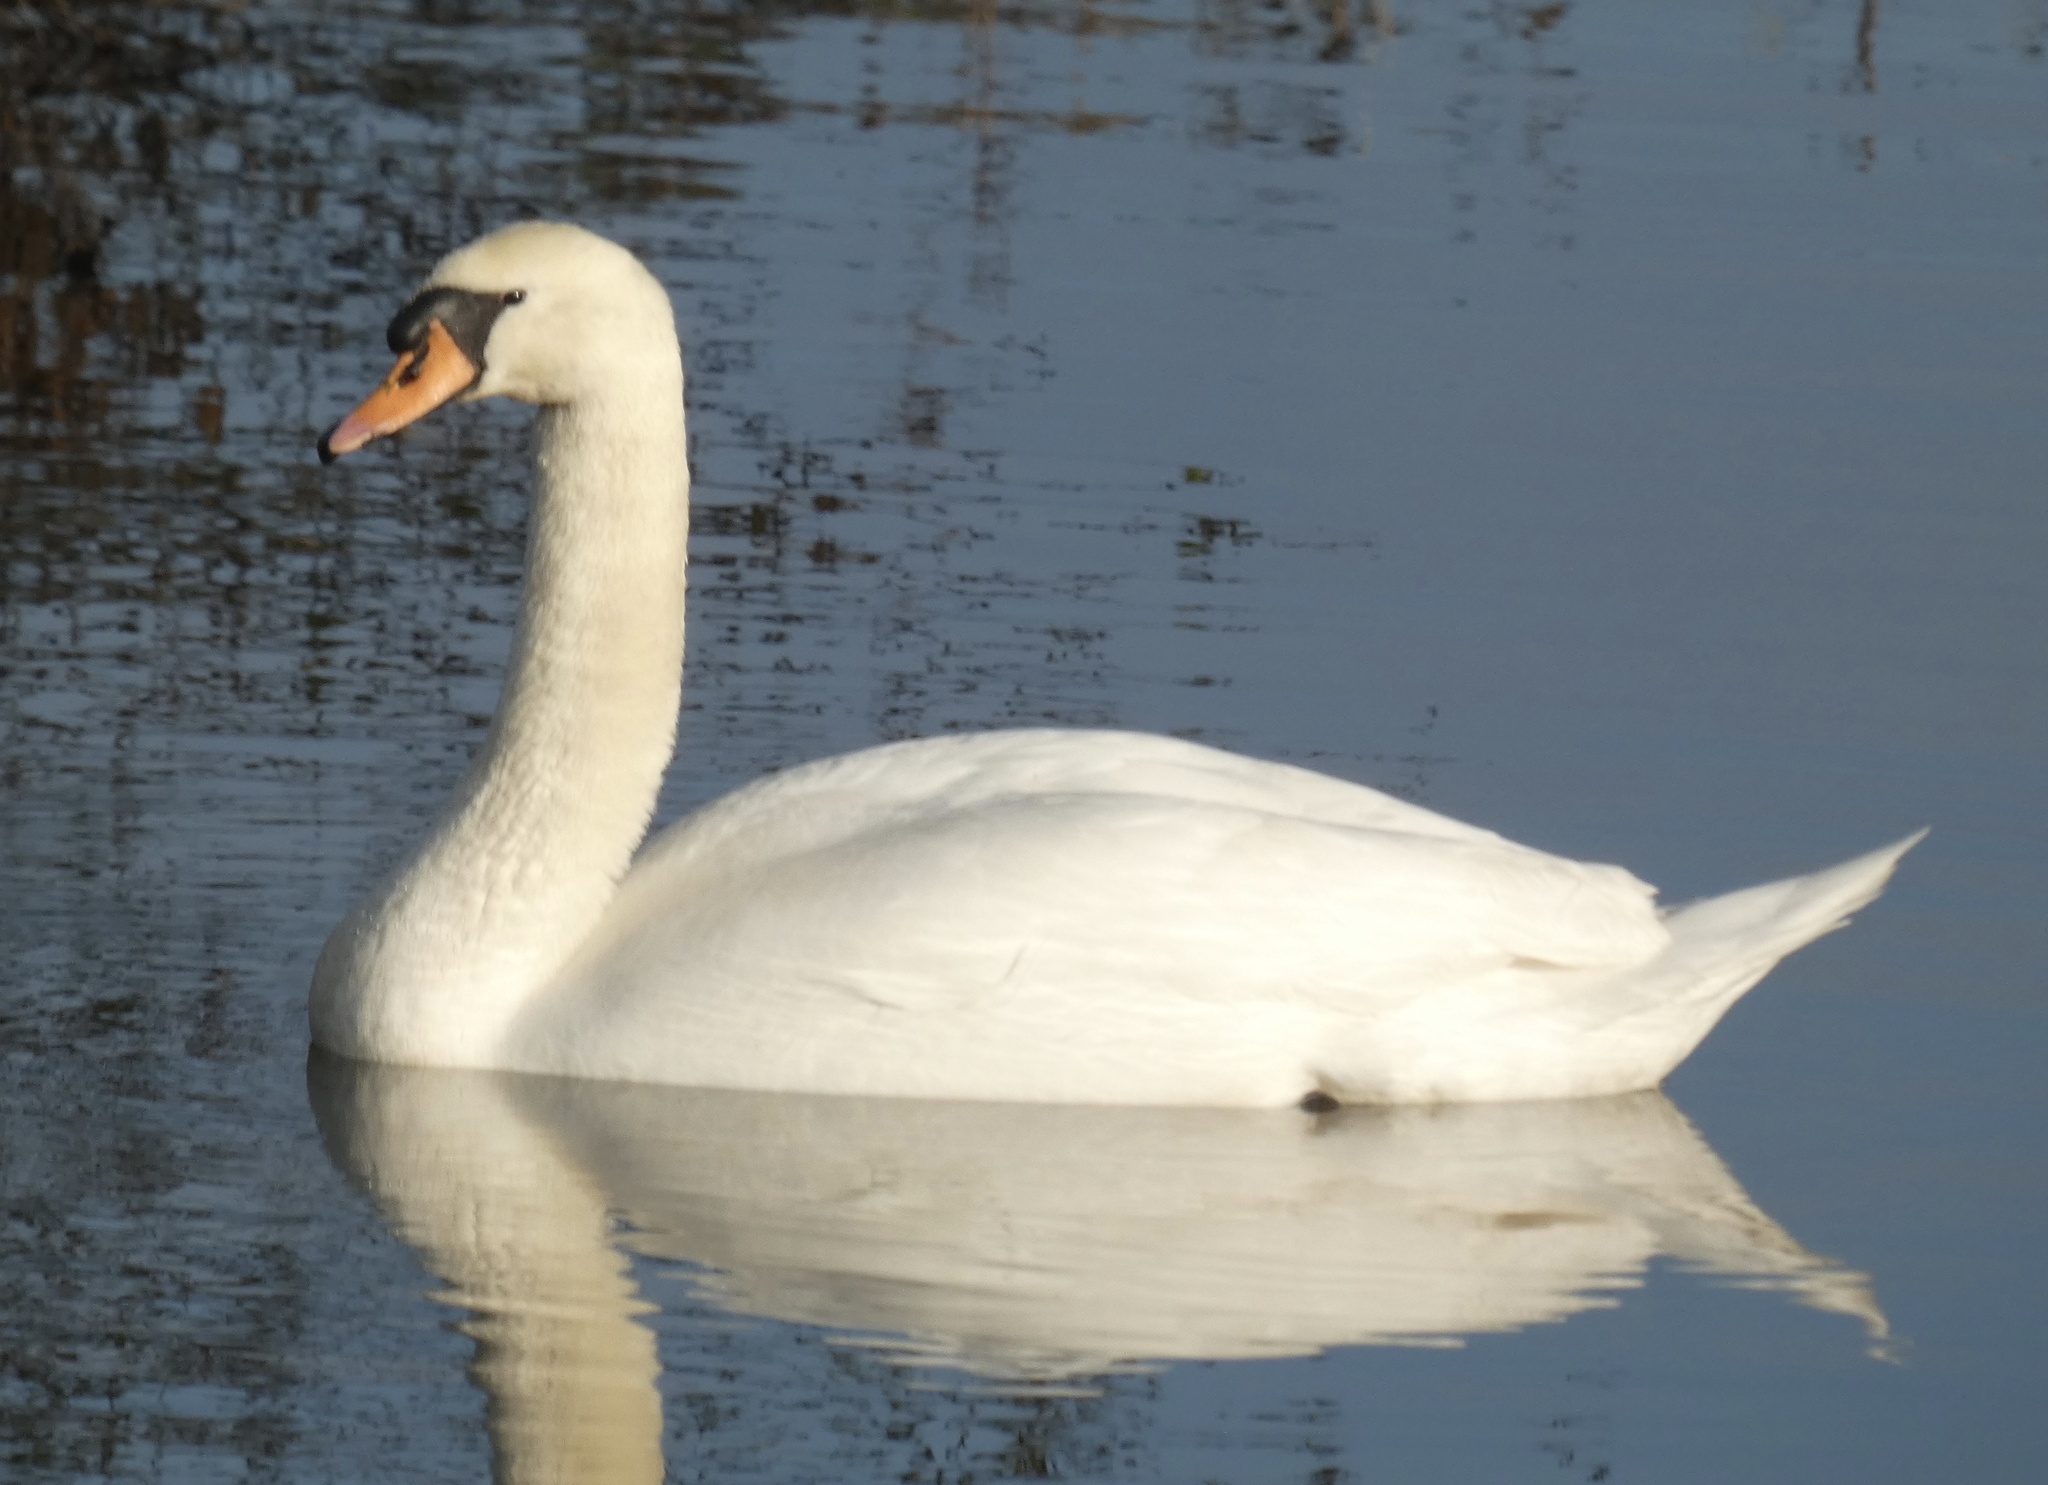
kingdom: Animalia
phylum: Chordata
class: Aves
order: Anseriformes
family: Anatidae
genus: Cygnus
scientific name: Cygnus olor
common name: Mute swan
